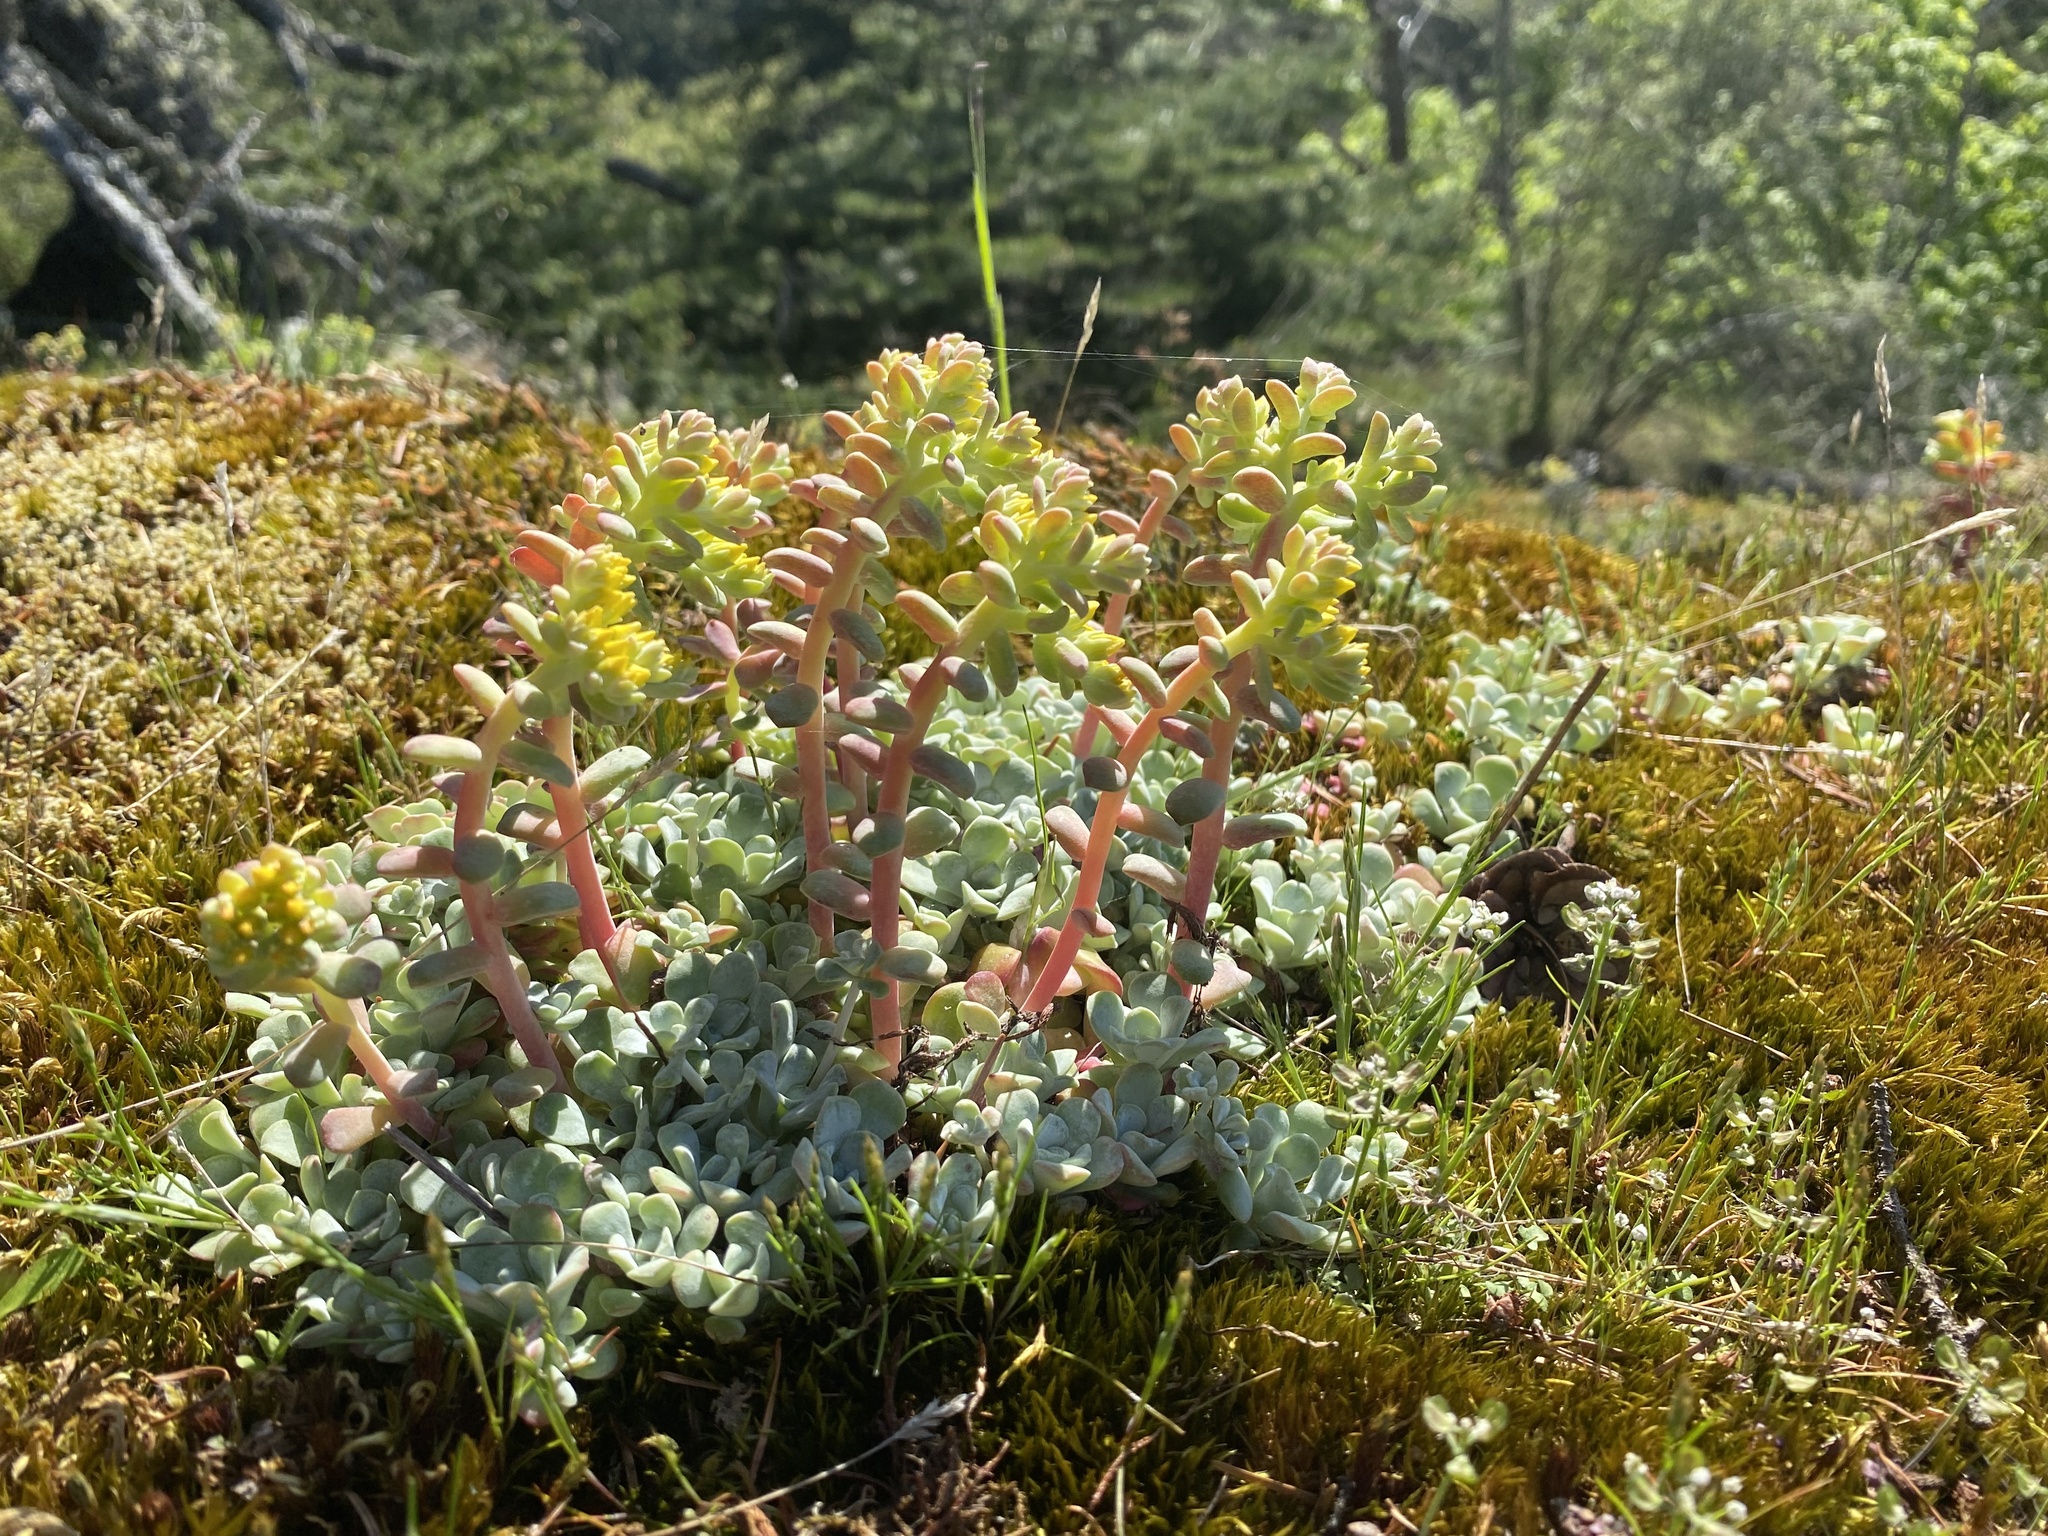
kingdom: Plantae
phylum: Tracheophyta
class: Magnoliopsida
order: Saxifragales
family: Crassulaceae
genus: Sedum
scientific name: Sedum spathulifolium
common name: Colorado stonecrop
